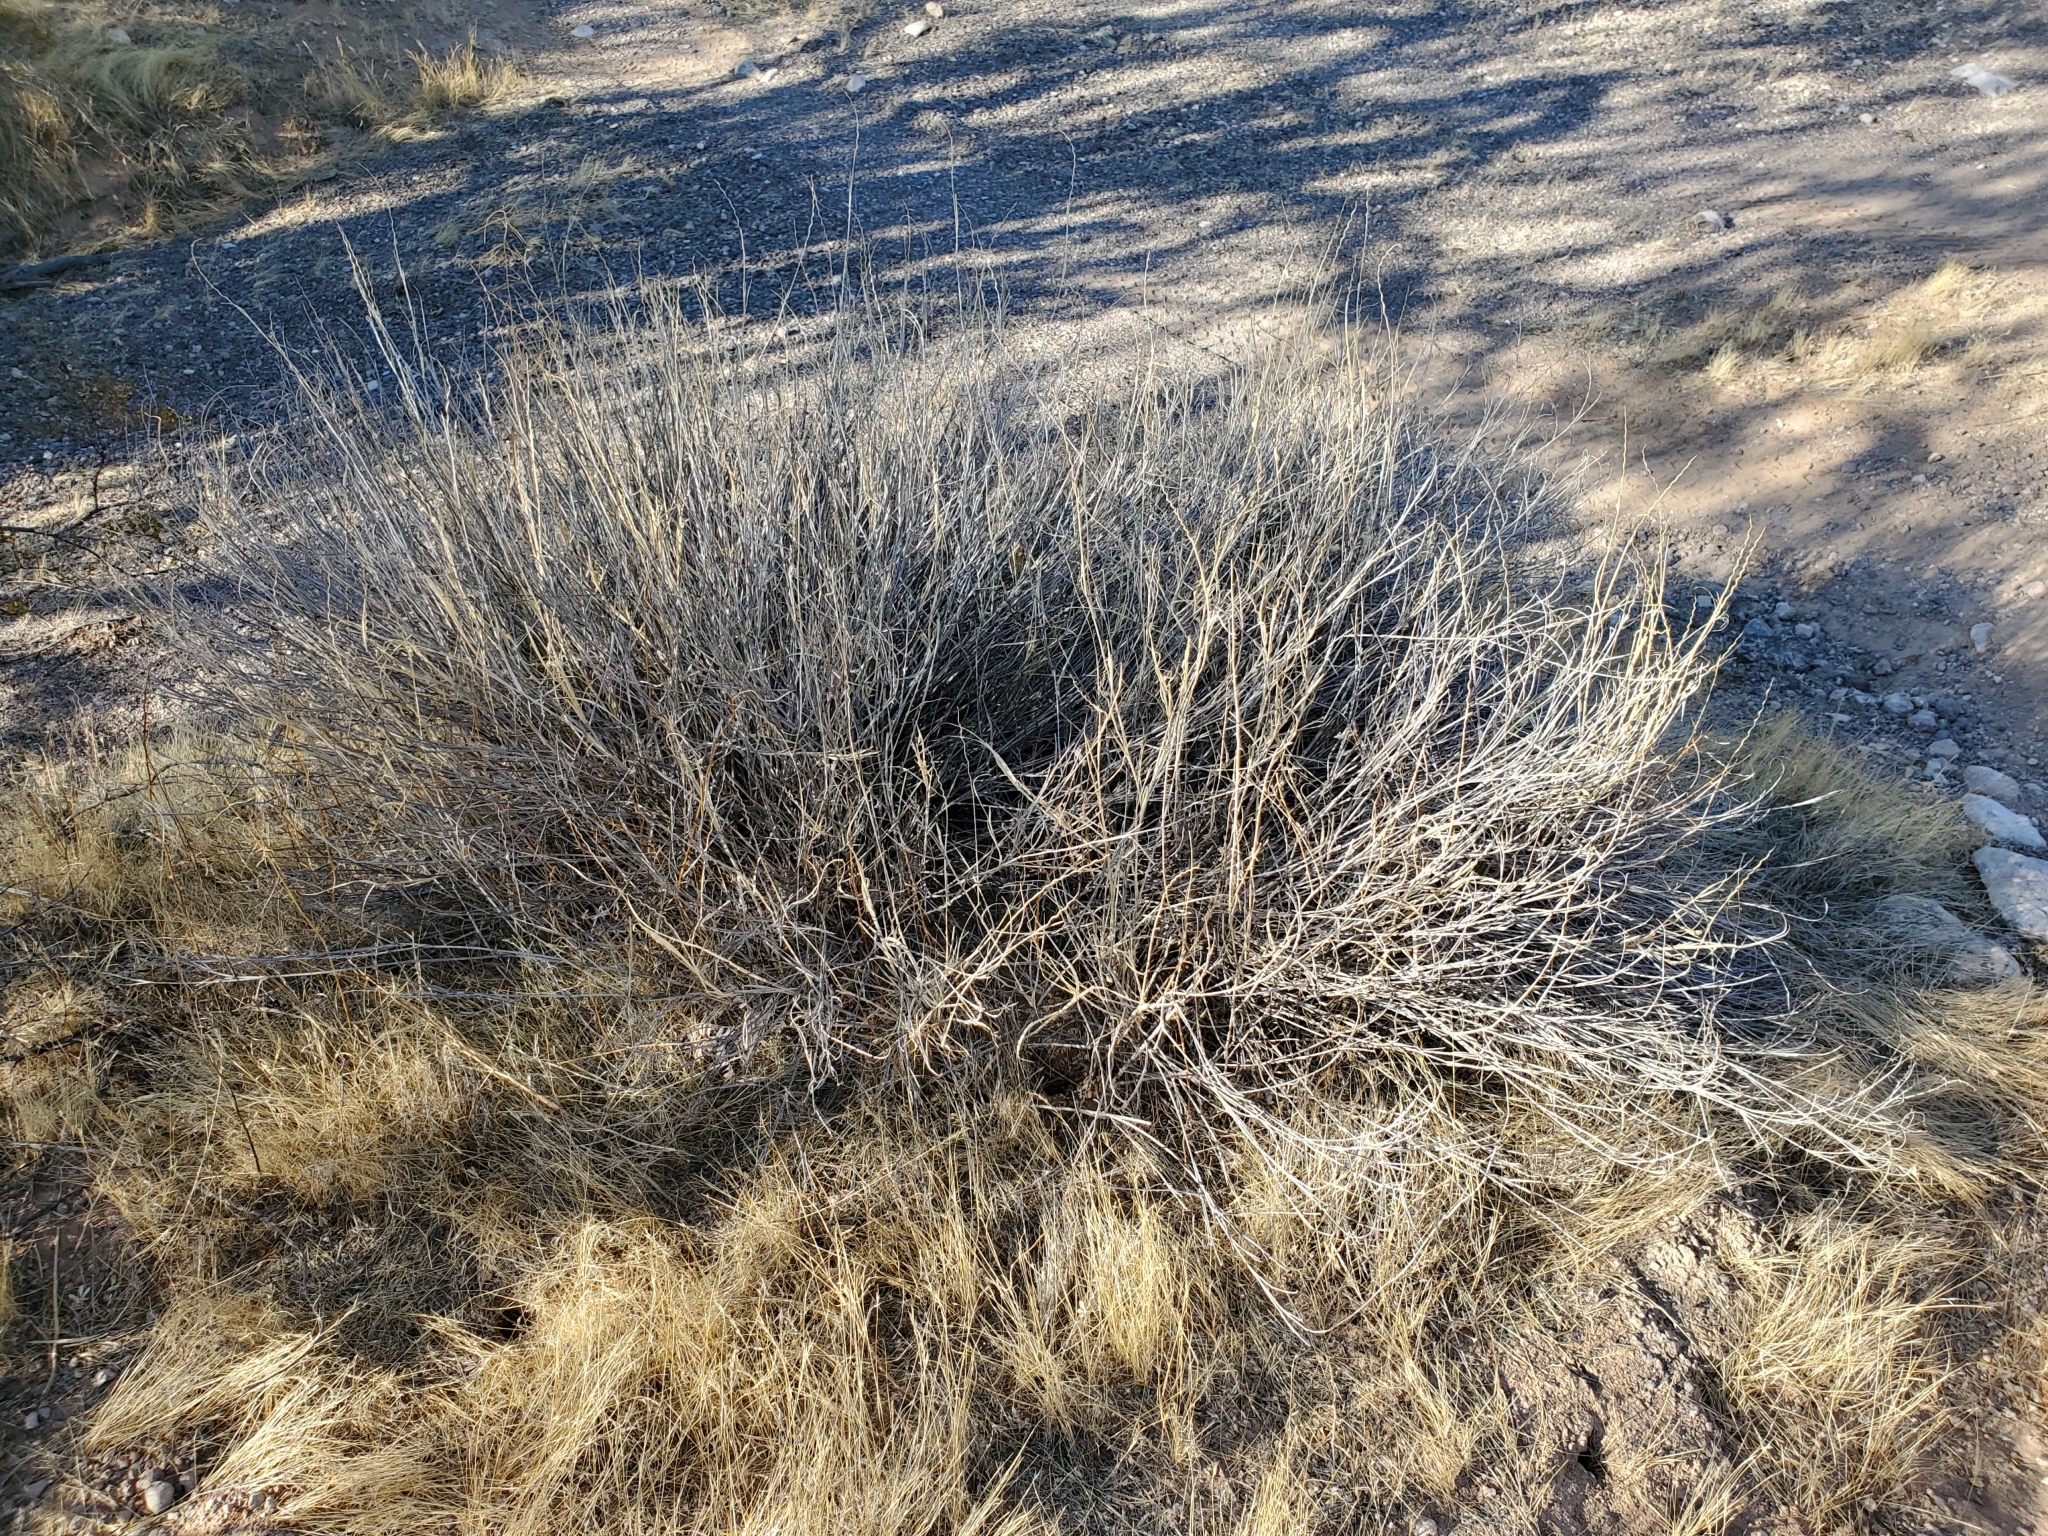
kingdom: Plantae
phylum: Tracheophyta
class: Liliopsida
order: Poales
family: Poaceae
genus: Hilaria
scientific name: Hilaria rigida
